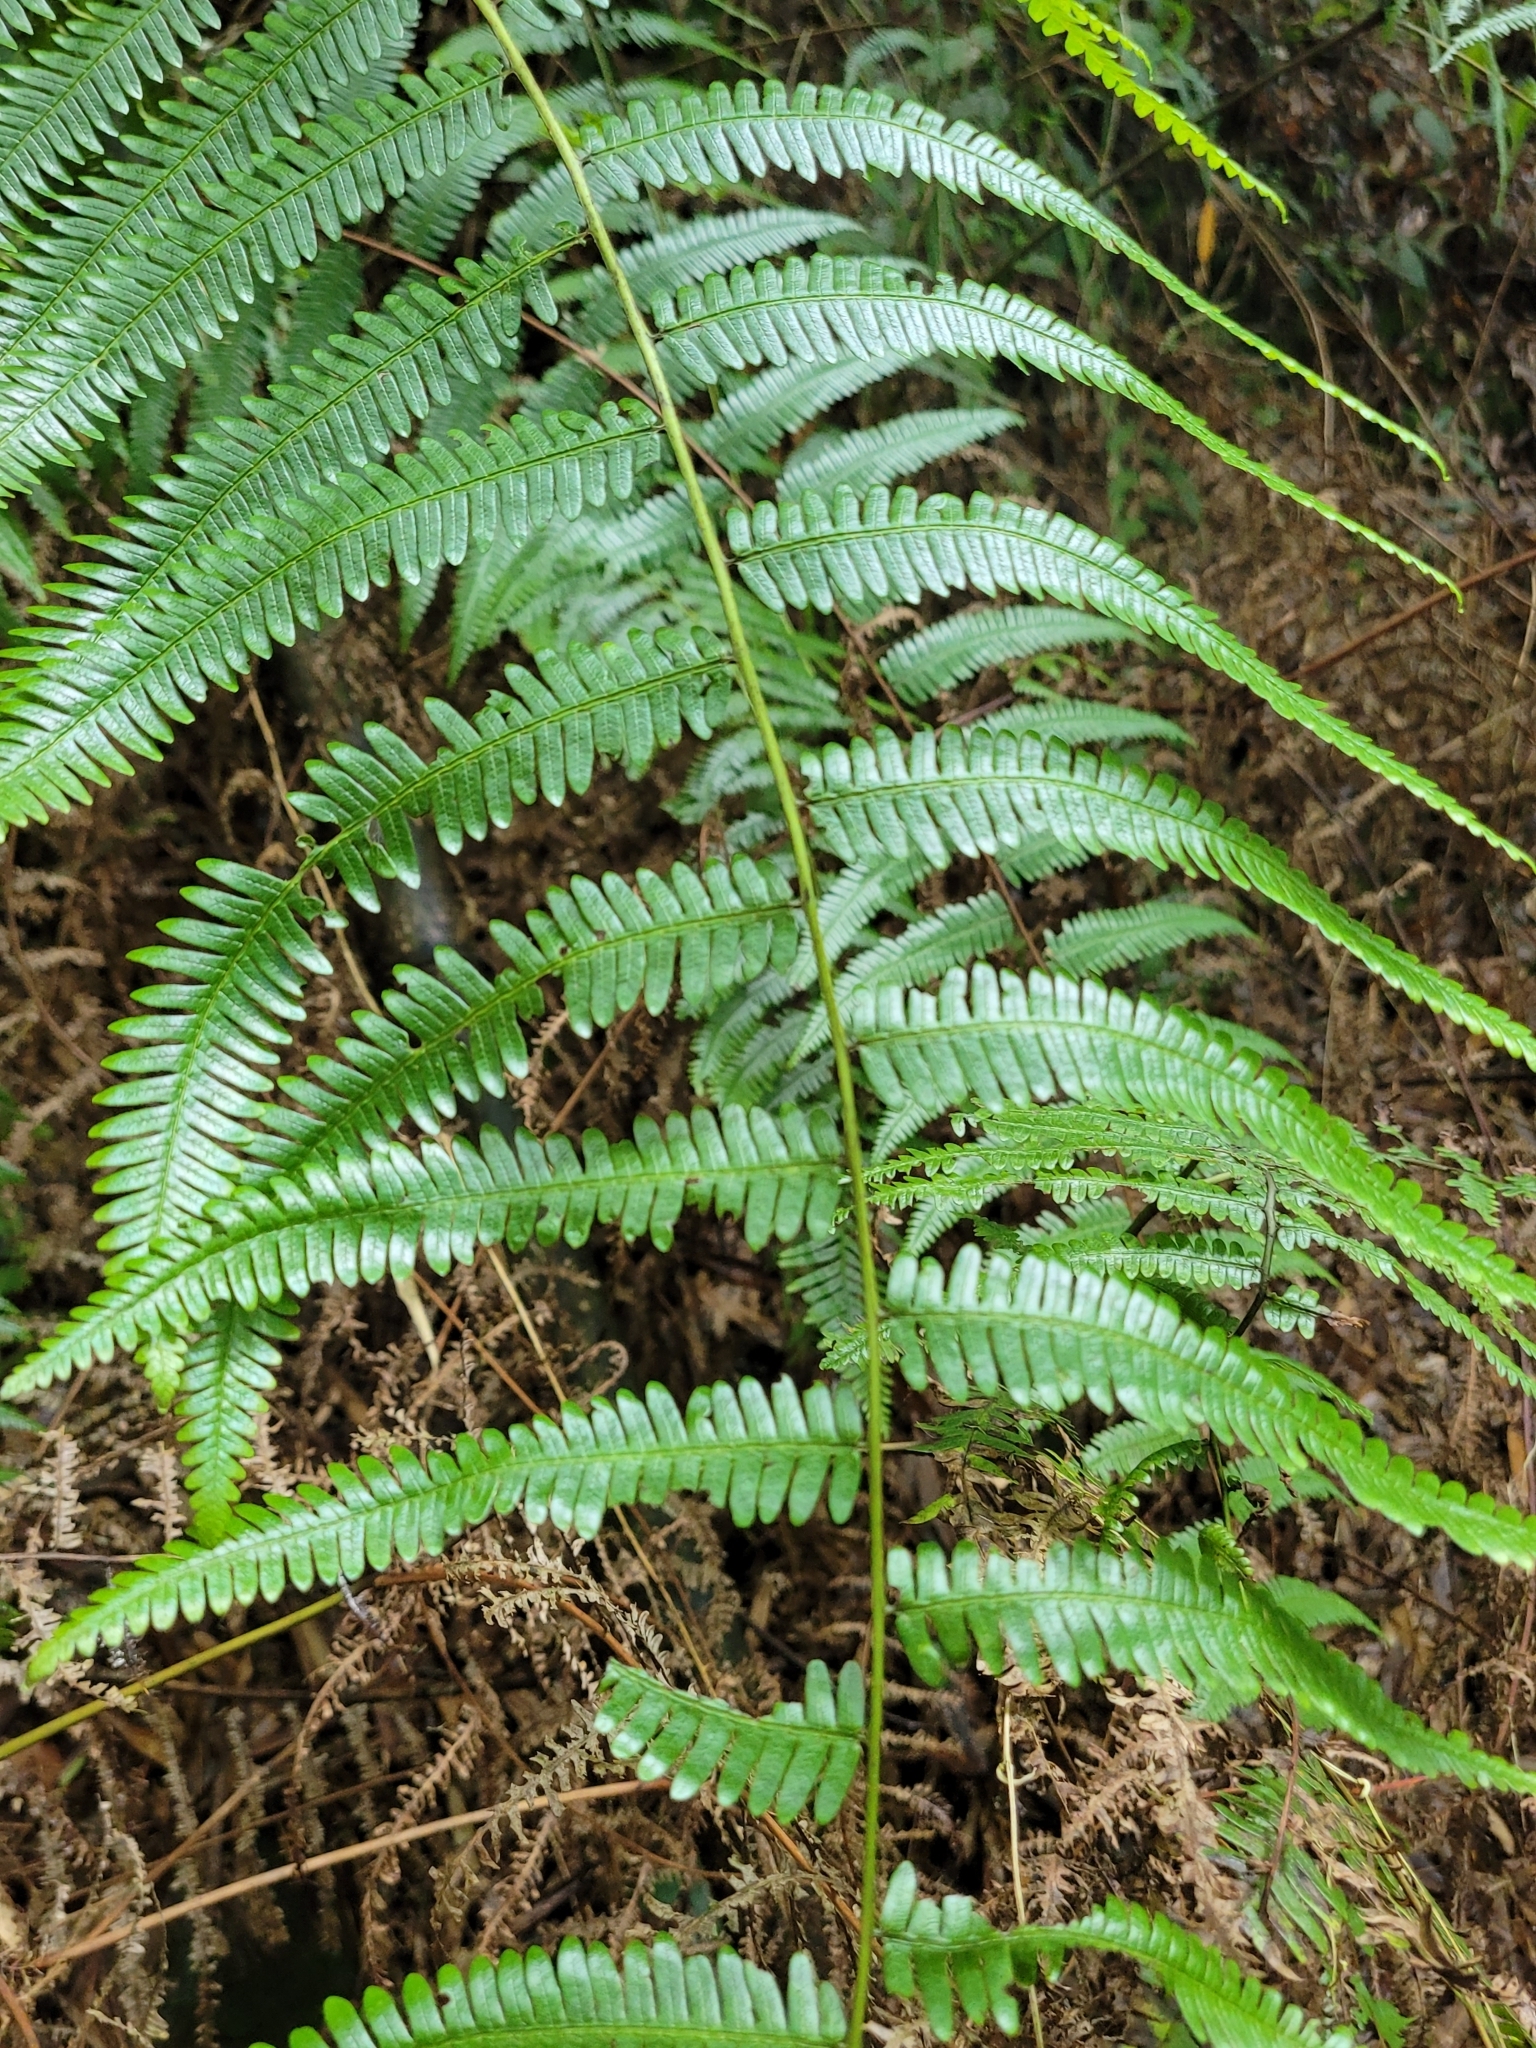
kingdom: Plantae
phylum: Tracheophyta
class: Polypodiopsida
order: Gleicheniales
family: Gleicheniaceae
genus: Diplopterygium
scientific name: Diplopterygium glaucum
